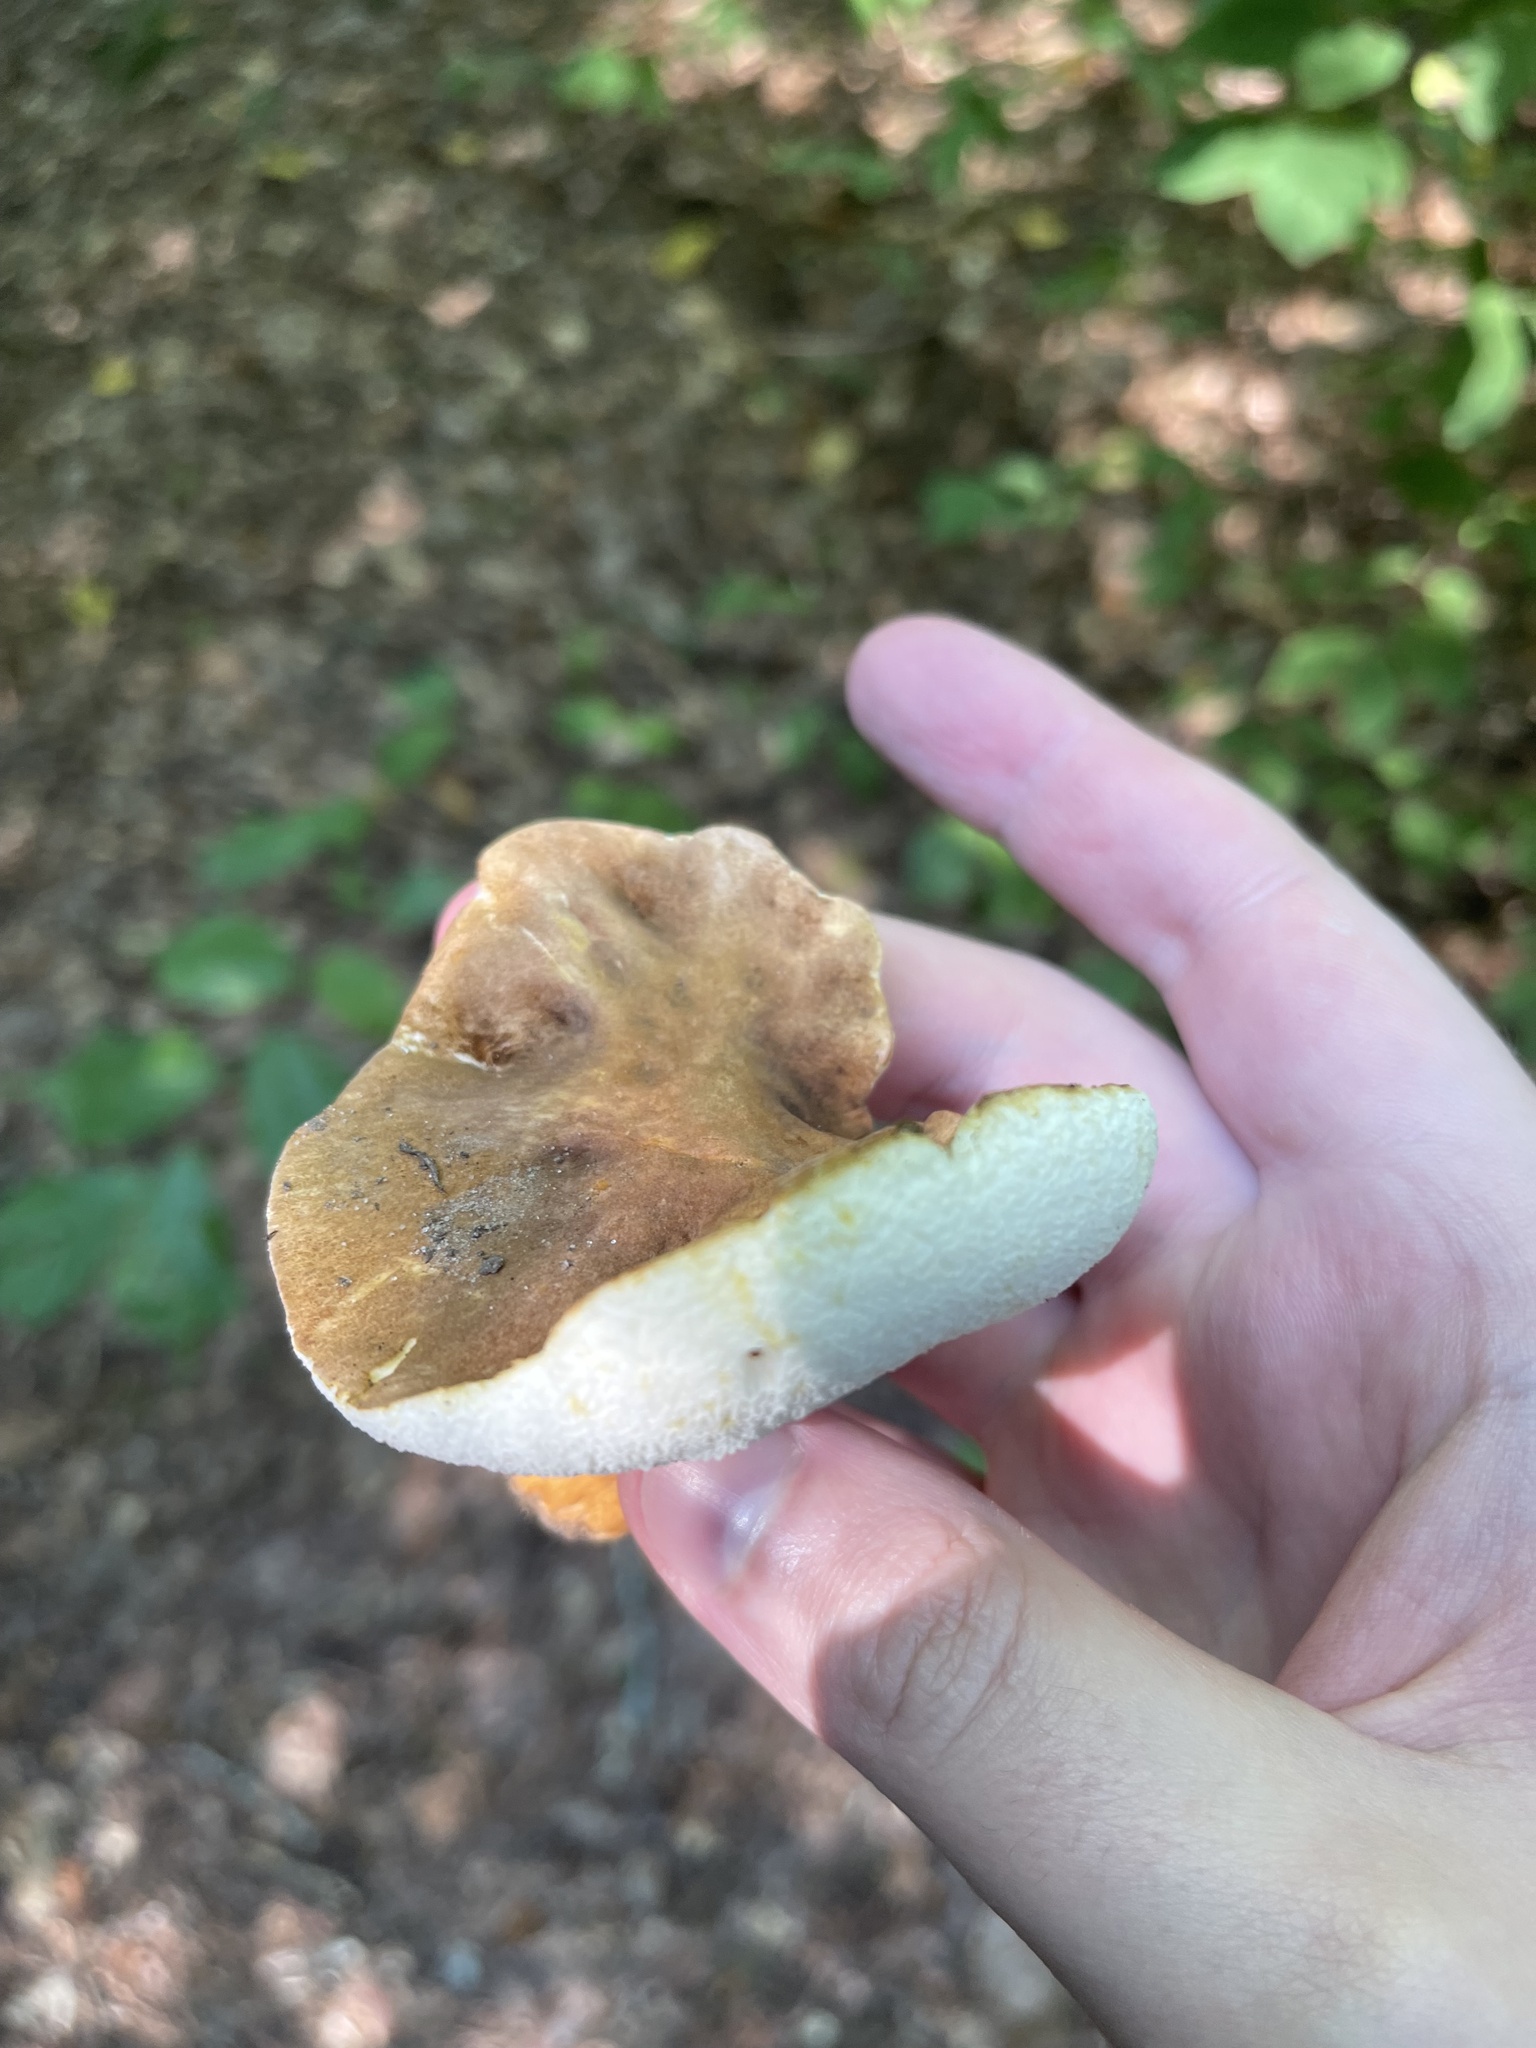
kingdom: Fungi
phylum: Basidiomycota
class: Agaricomycetes
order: Boletales
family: Gyroporaceae
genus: Gyroporus
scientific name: Gyroporus castaneus
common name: Chestnut bolete
